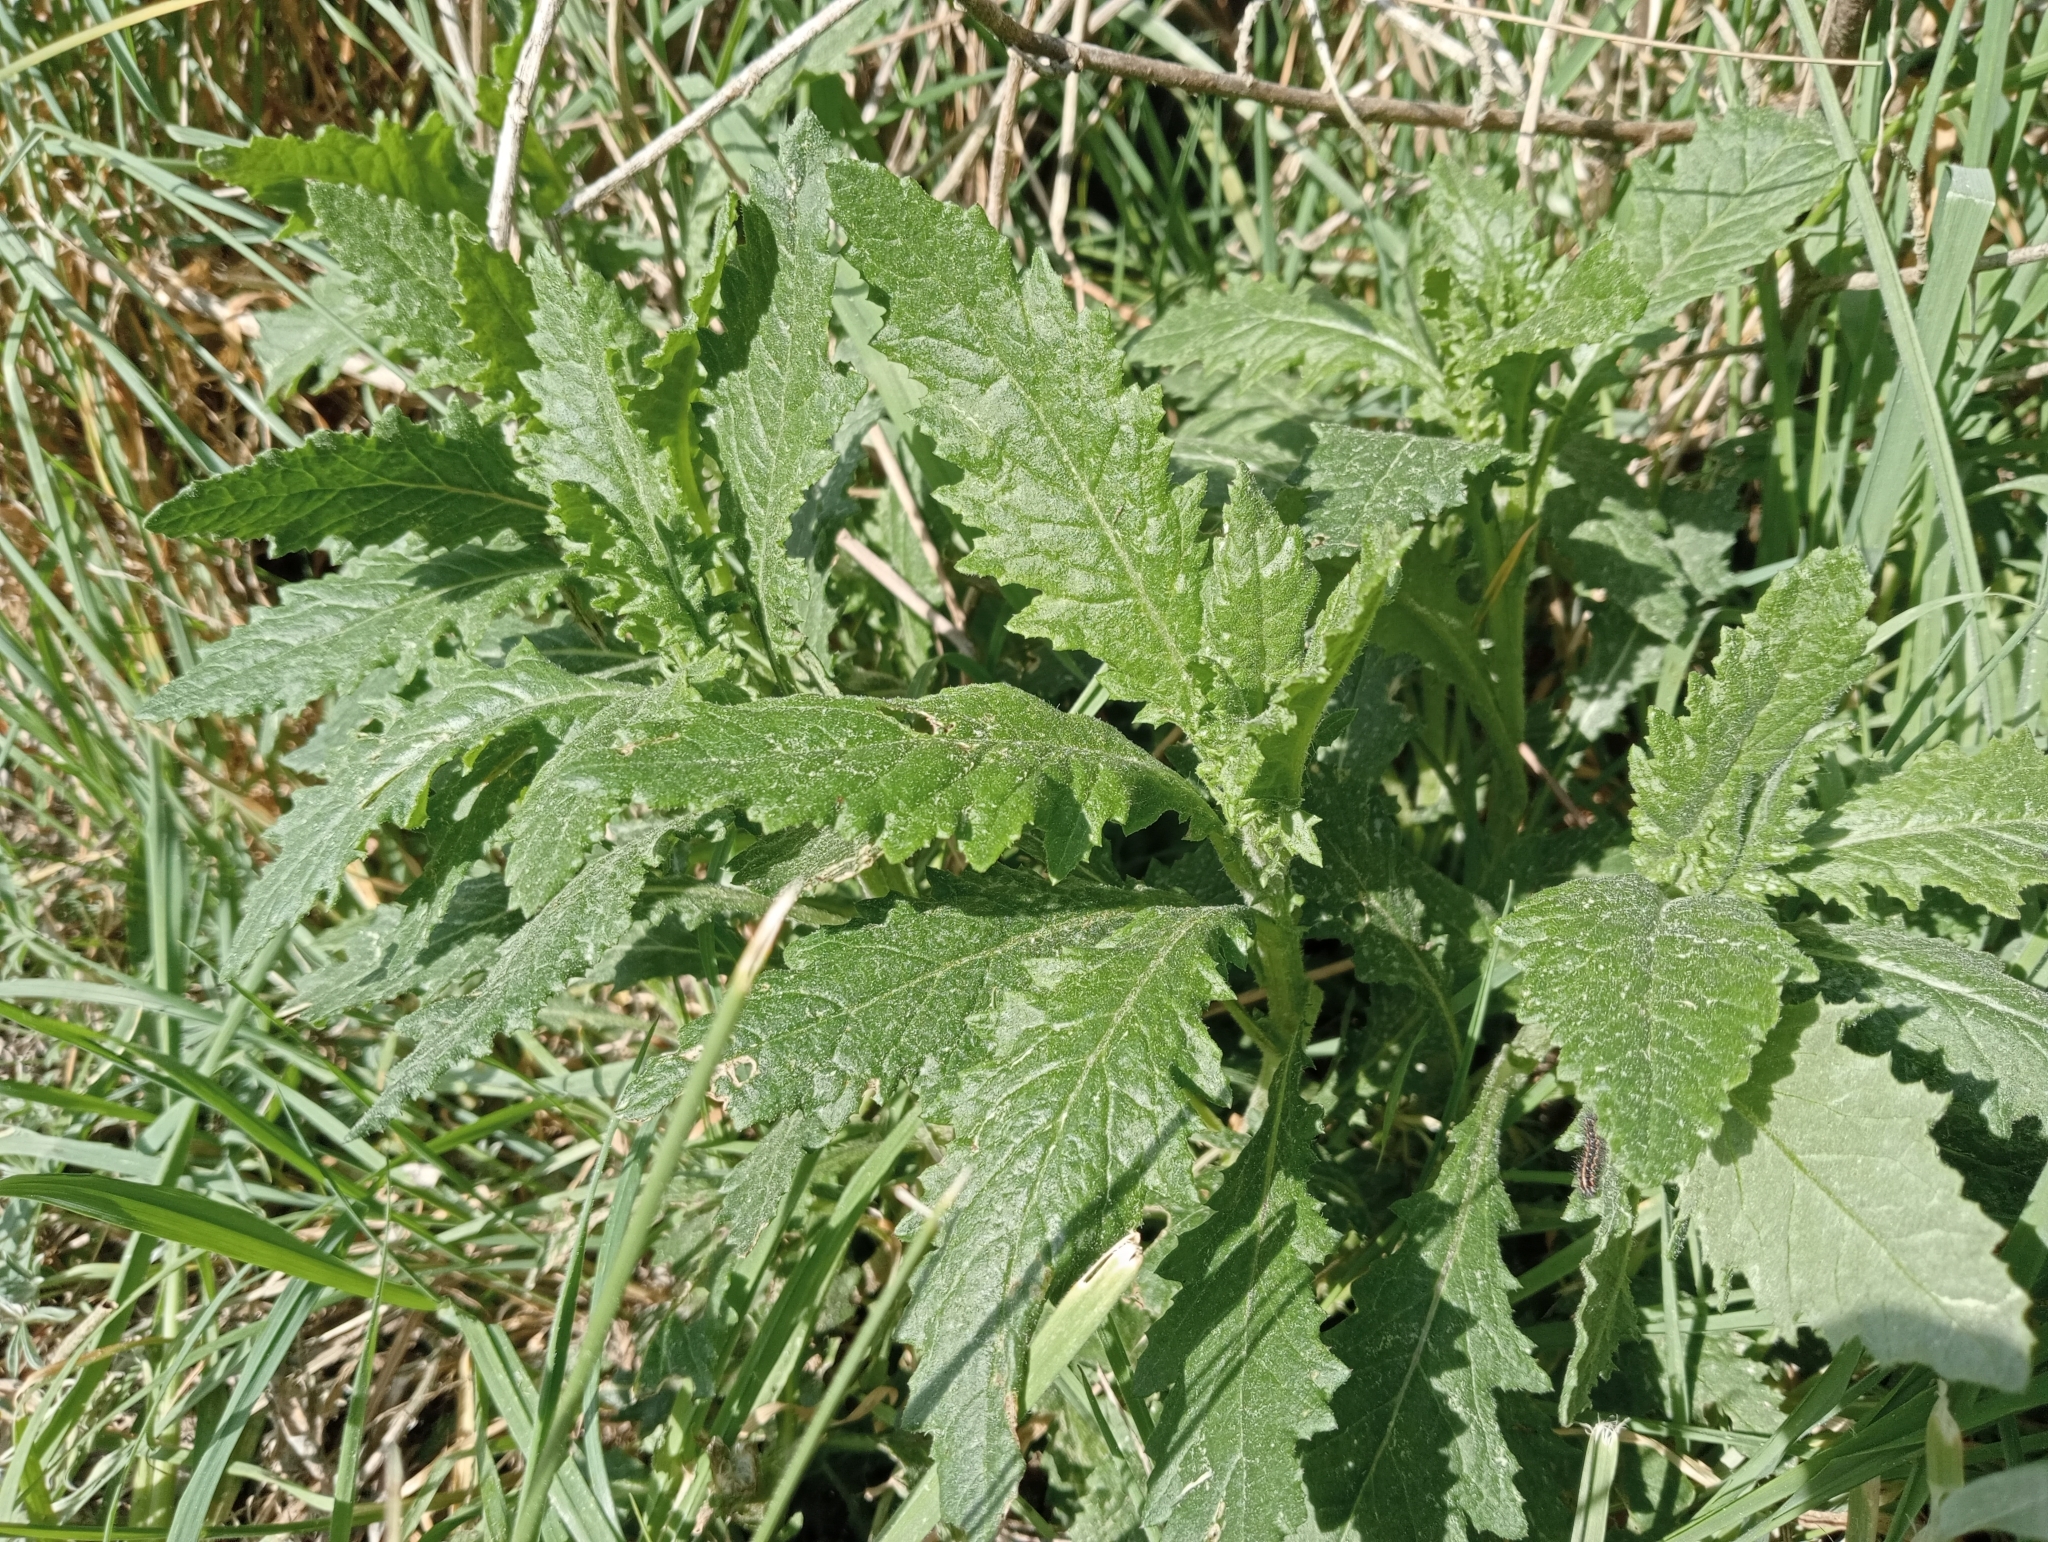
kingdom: Plantae
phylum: Tracheophyta
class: Magnoliopsida
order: Asterales
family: Asteraceae
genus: Senecio
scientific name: Senecio biserratus
